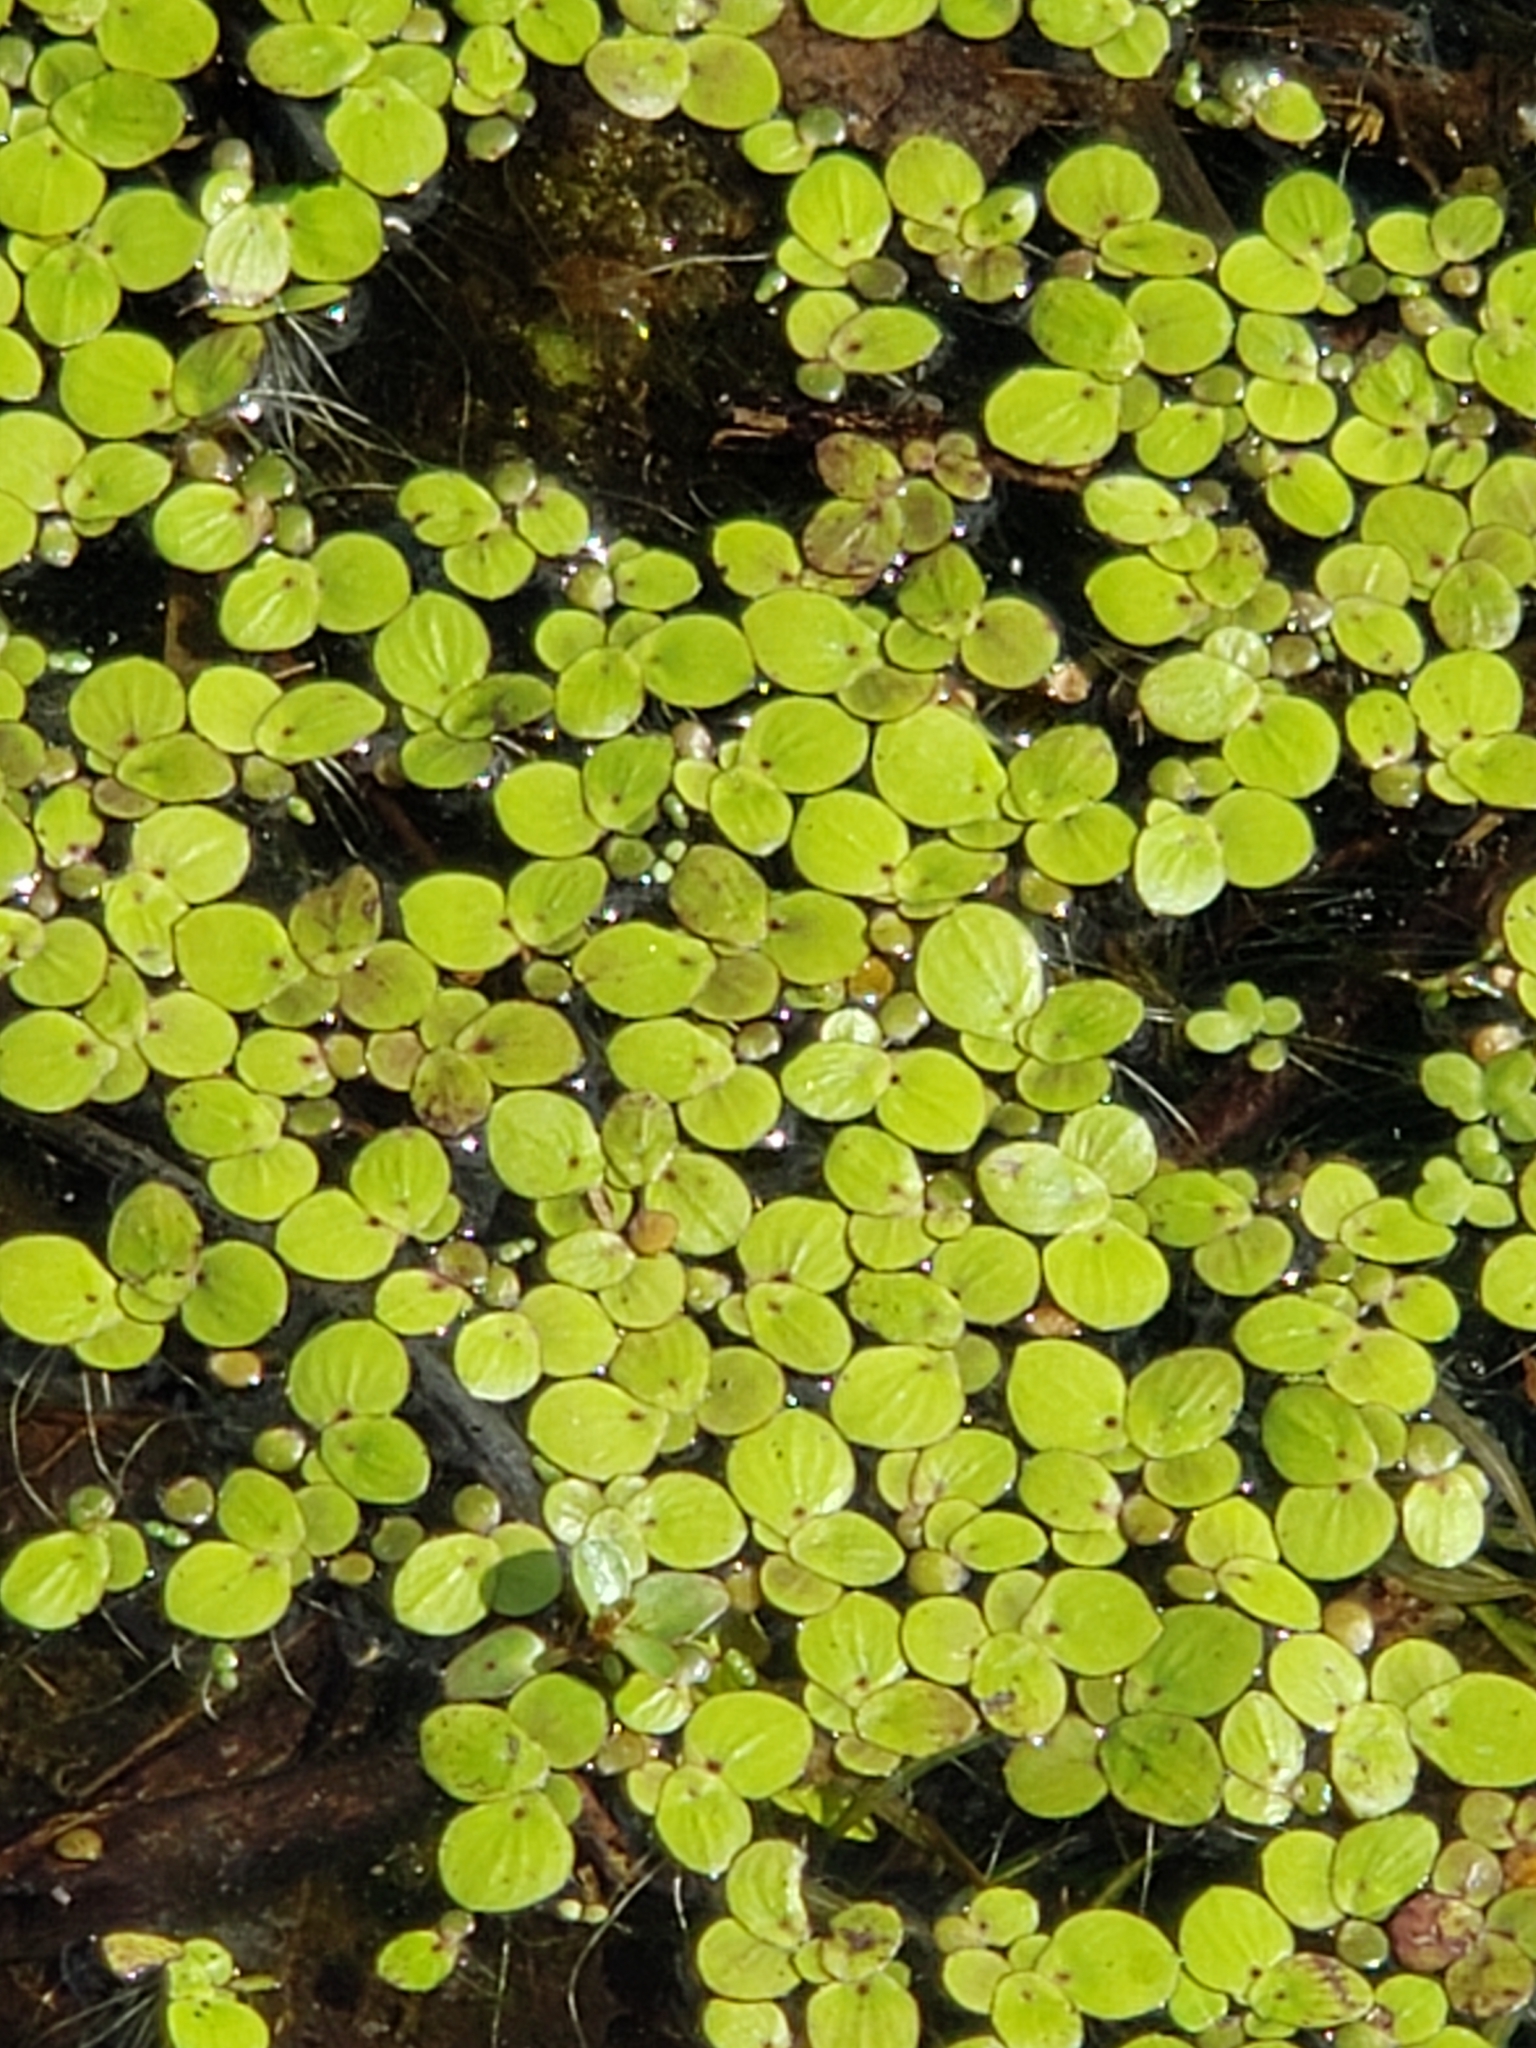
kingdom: Plantae
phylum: Tracheophyta
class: Liliopsida
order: Alismatales
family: Araceae
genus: Spirodela
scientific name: Spirodela polyrhiza
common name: Great duckweed
